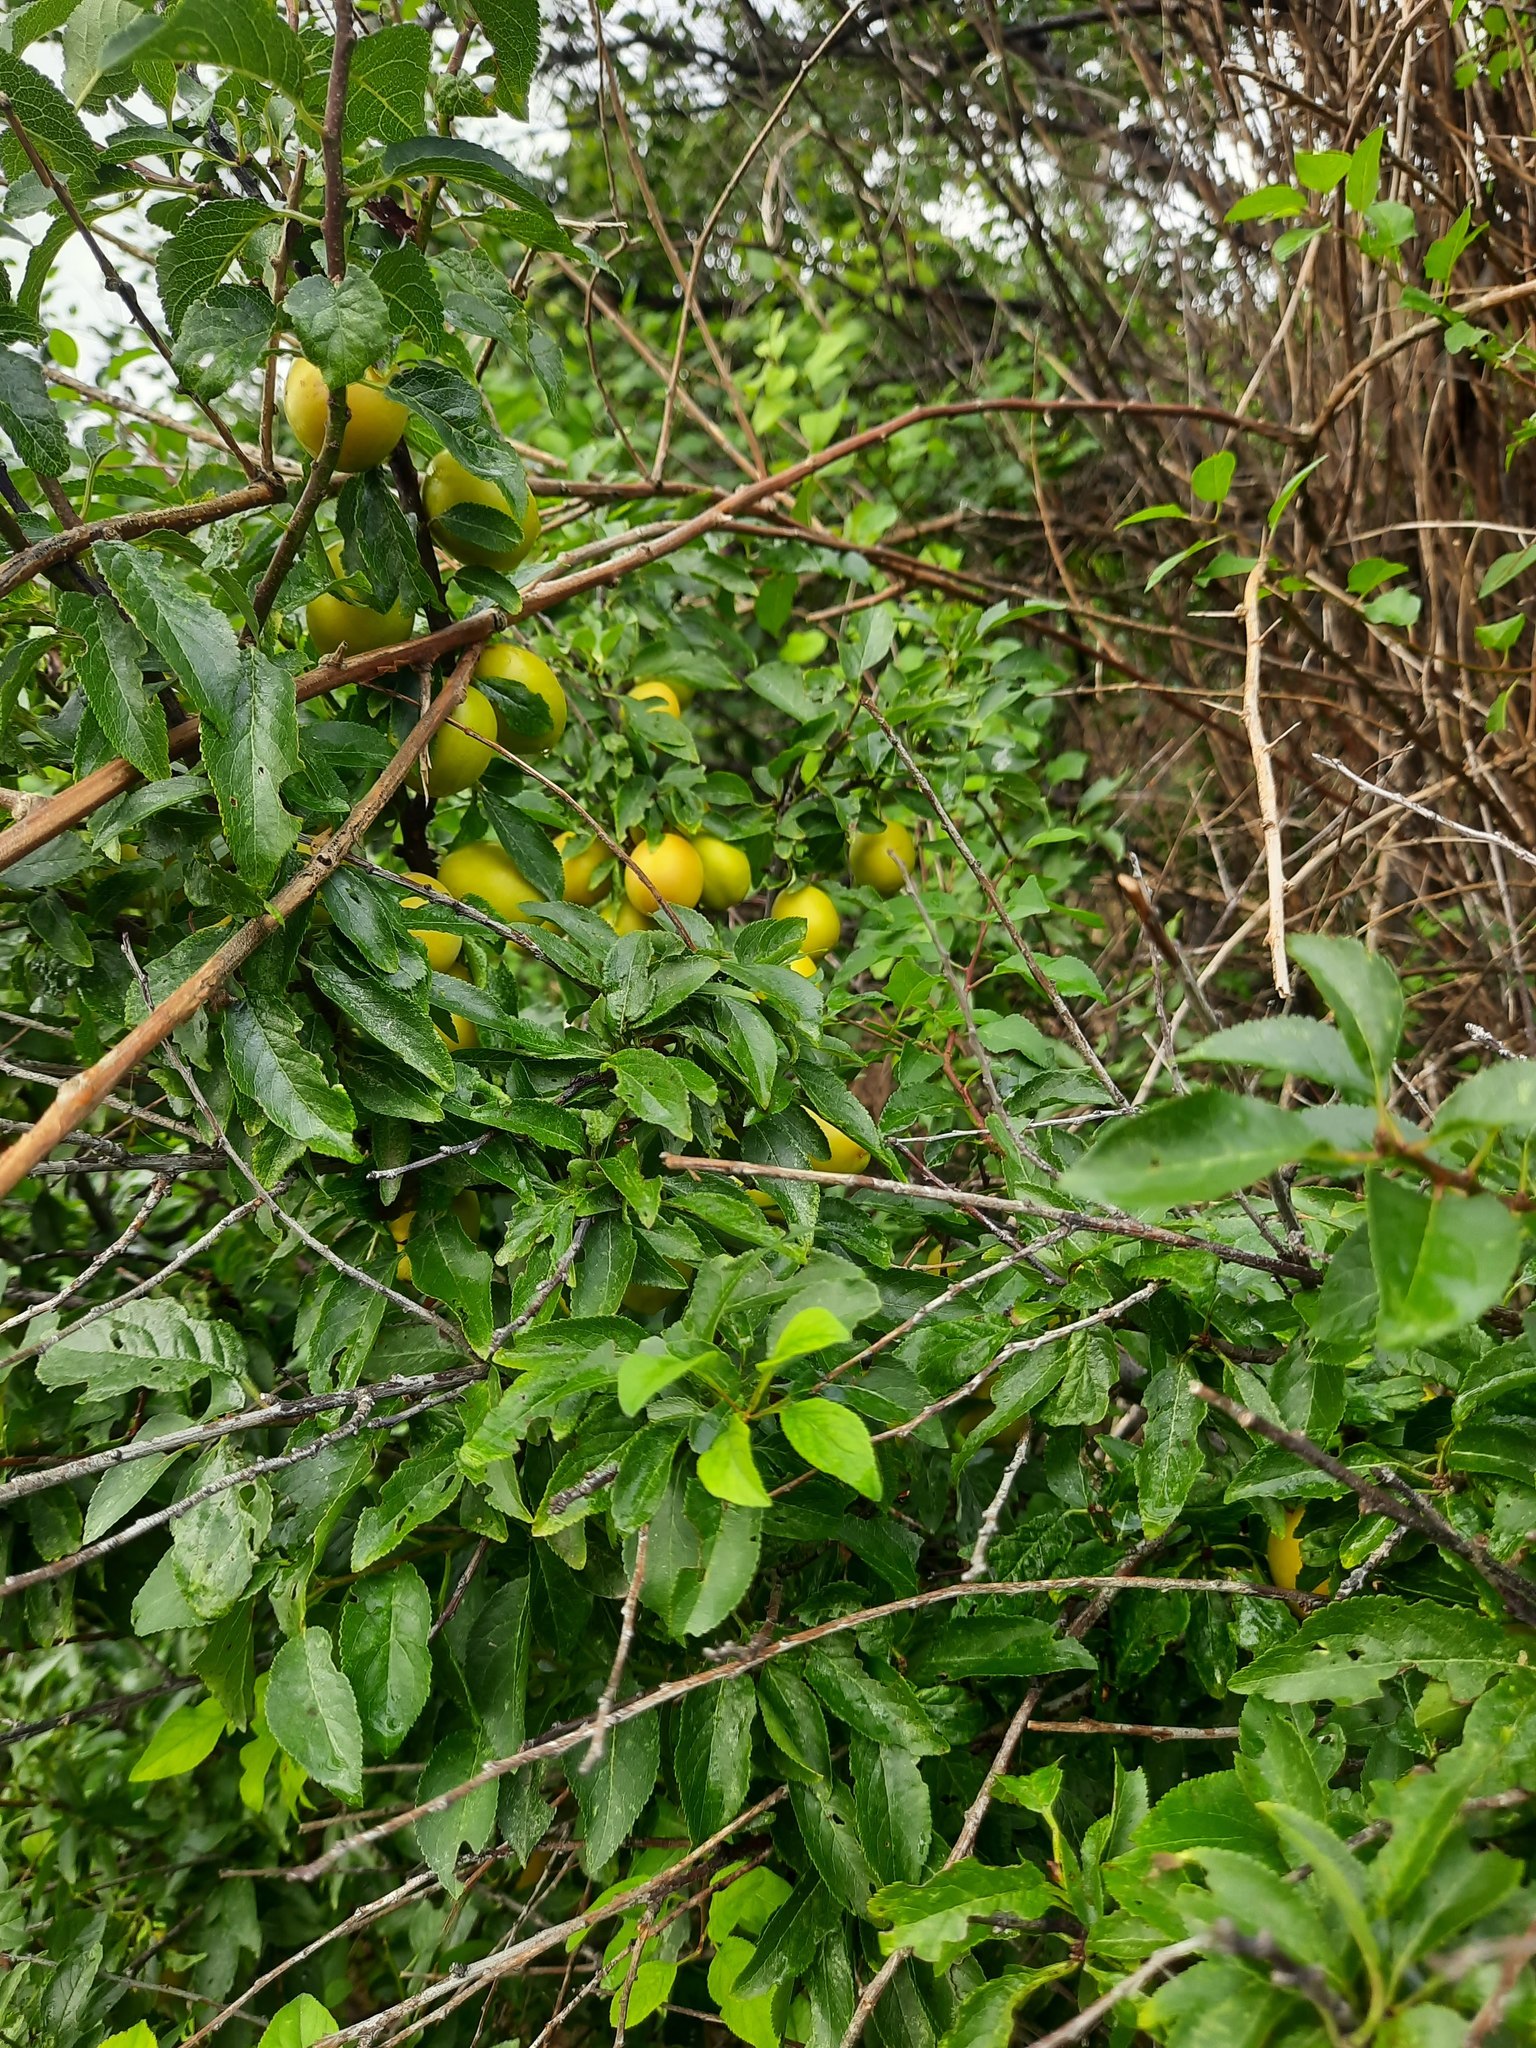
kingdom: Plantae
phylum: Tracheophyta
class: Magnoliopsida
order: Rosales
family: Rosaceae
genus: Prunus
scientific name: Prunus cerasifera
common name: Cherry plum
